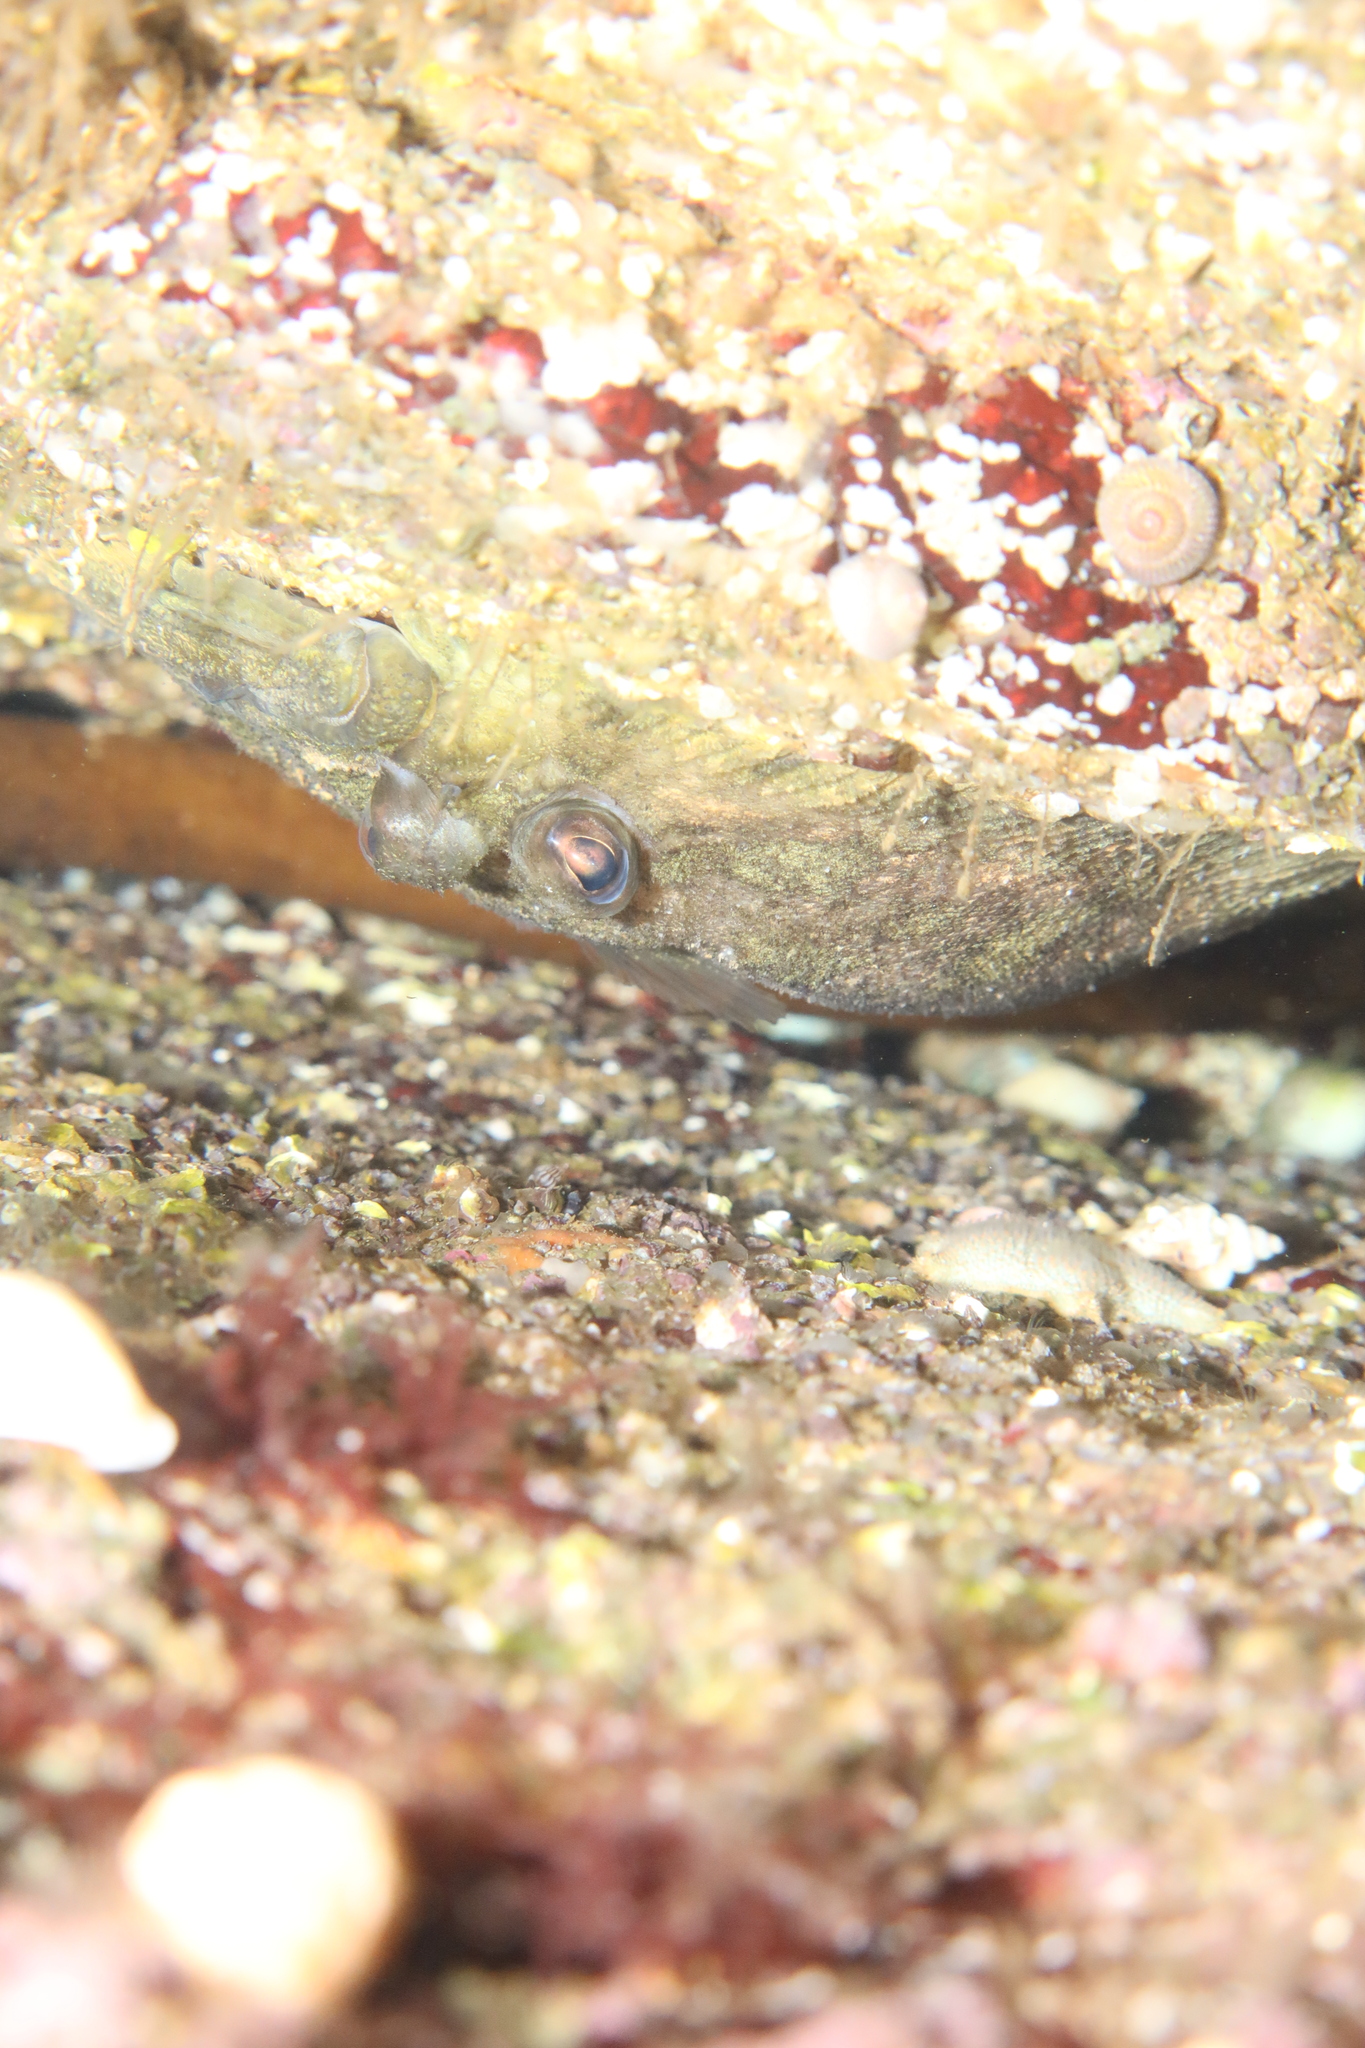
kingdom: Animalia
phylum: Chordata
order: Pleuronectiformes
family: Scophthalmidae
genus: Zeugopterus
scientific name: Zeugopterus punctatus
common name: Topknot
